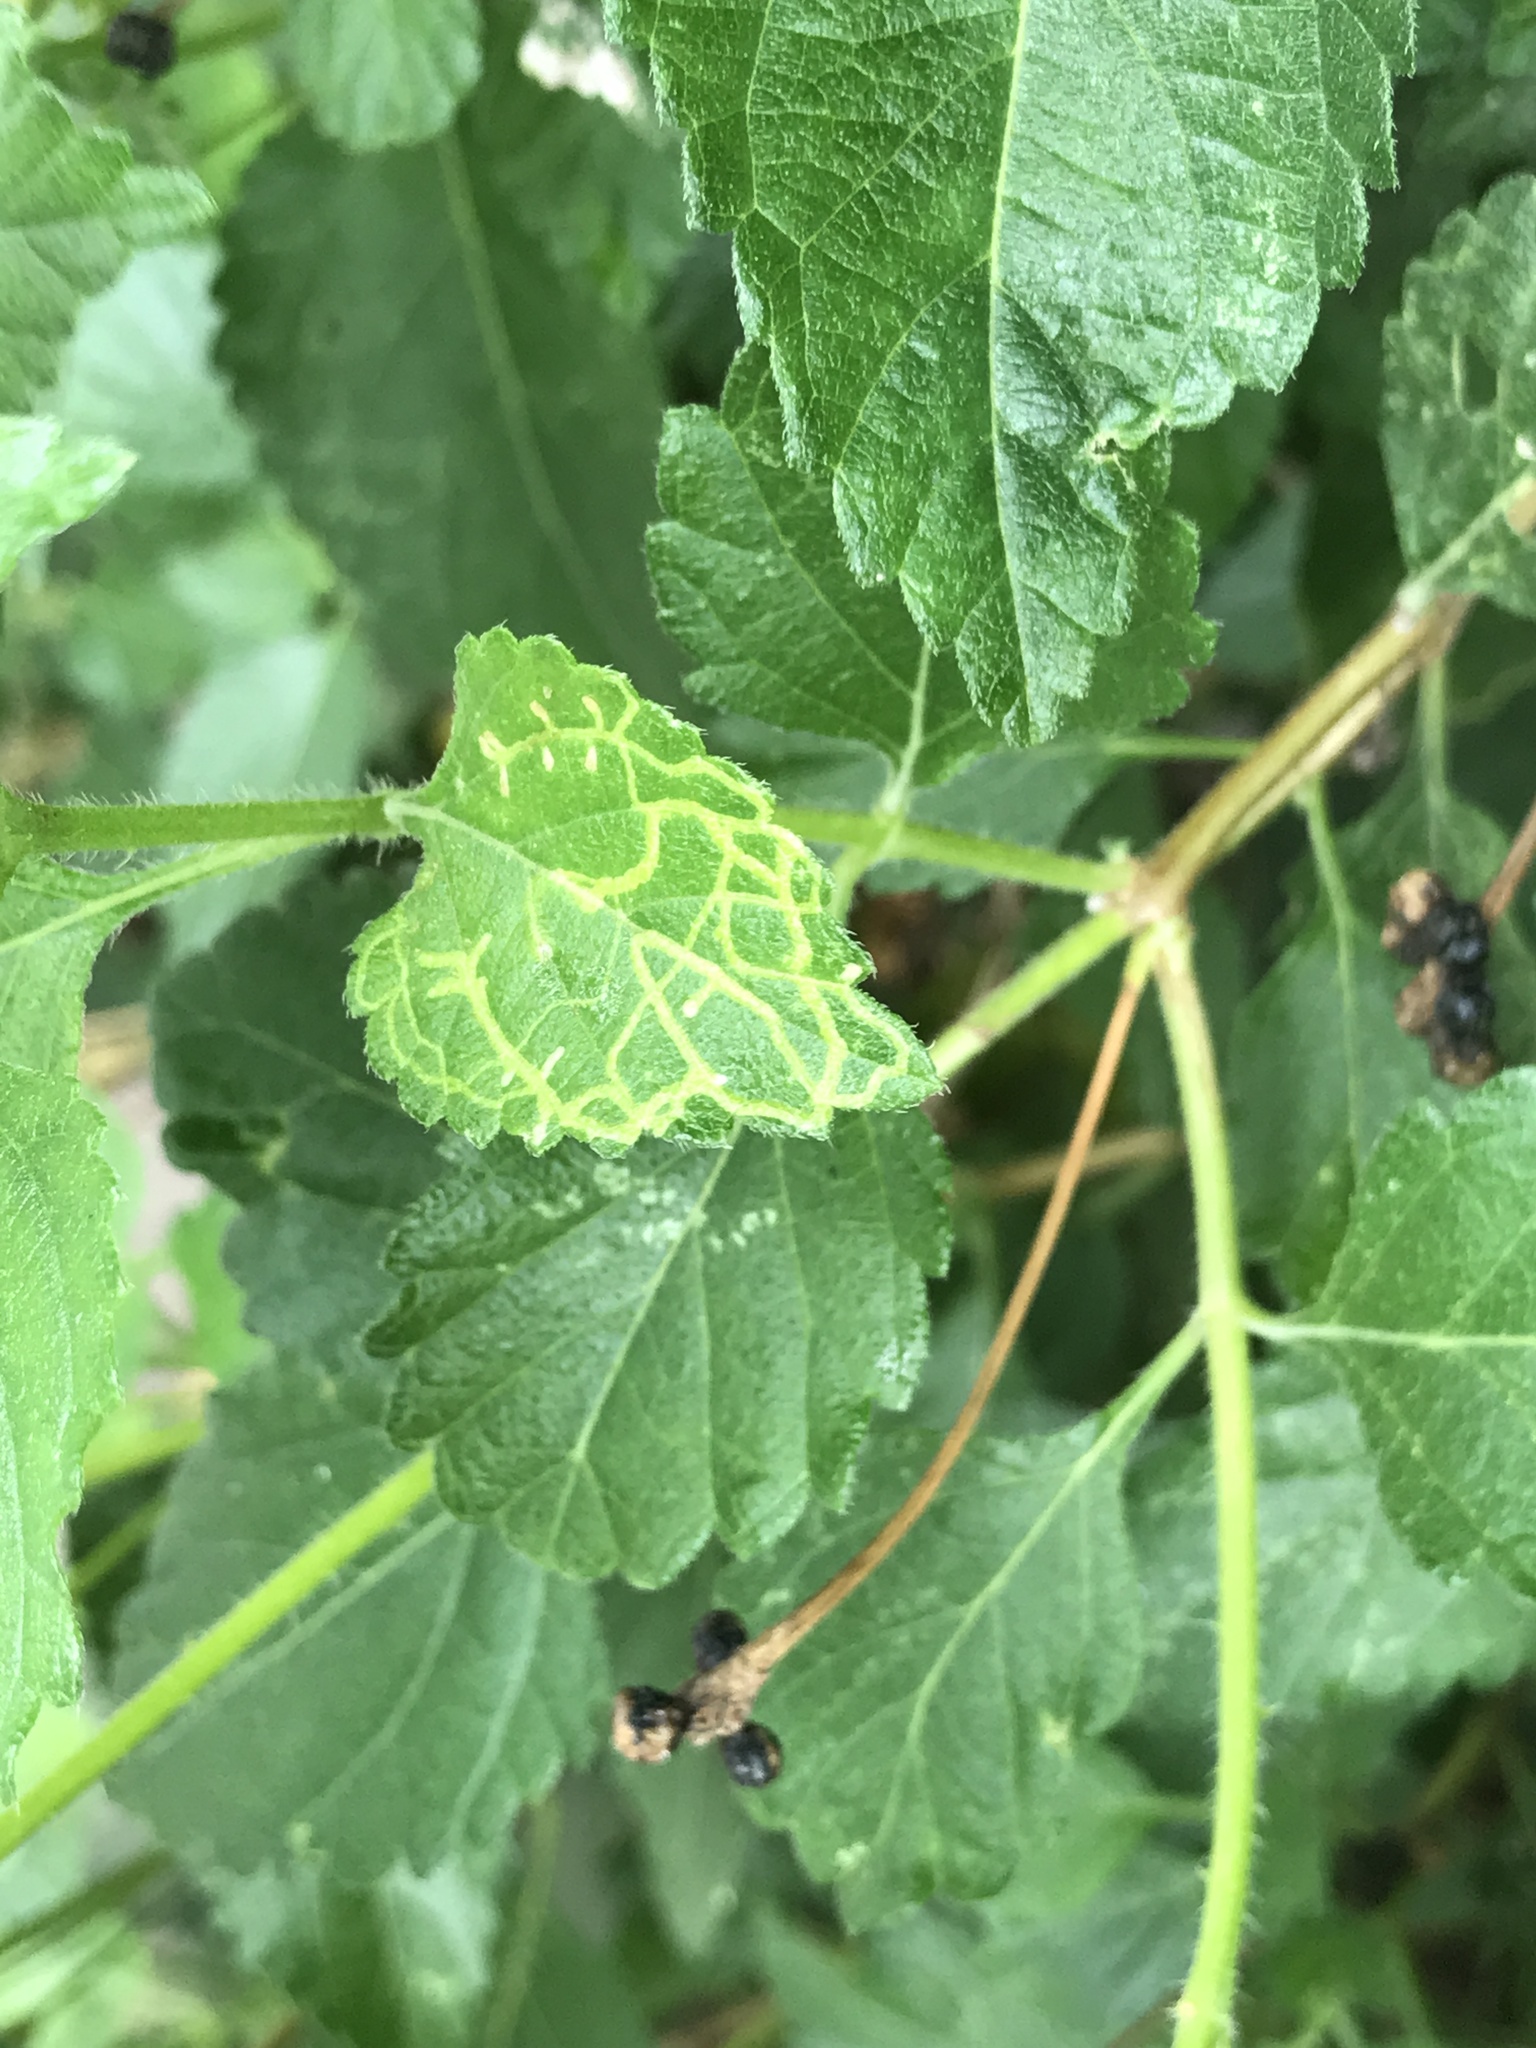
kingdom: Animalia
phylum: Arthropoda
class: Insecta
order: Diptera
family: Agromyzidae
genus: Ophiomyia
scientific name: Ophiomyia camarae
